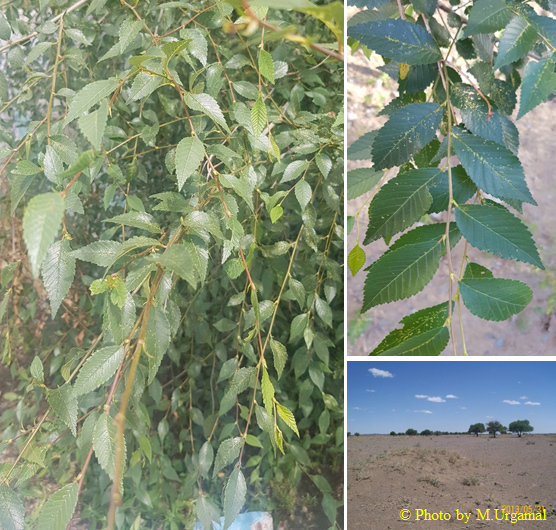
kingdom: Plantae
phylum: Tracheophyta
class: Magnoliopsida
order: Rosales
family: Ulmaceae
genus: Ulmus
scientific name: Ulmus pumila
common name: Siberian elm
